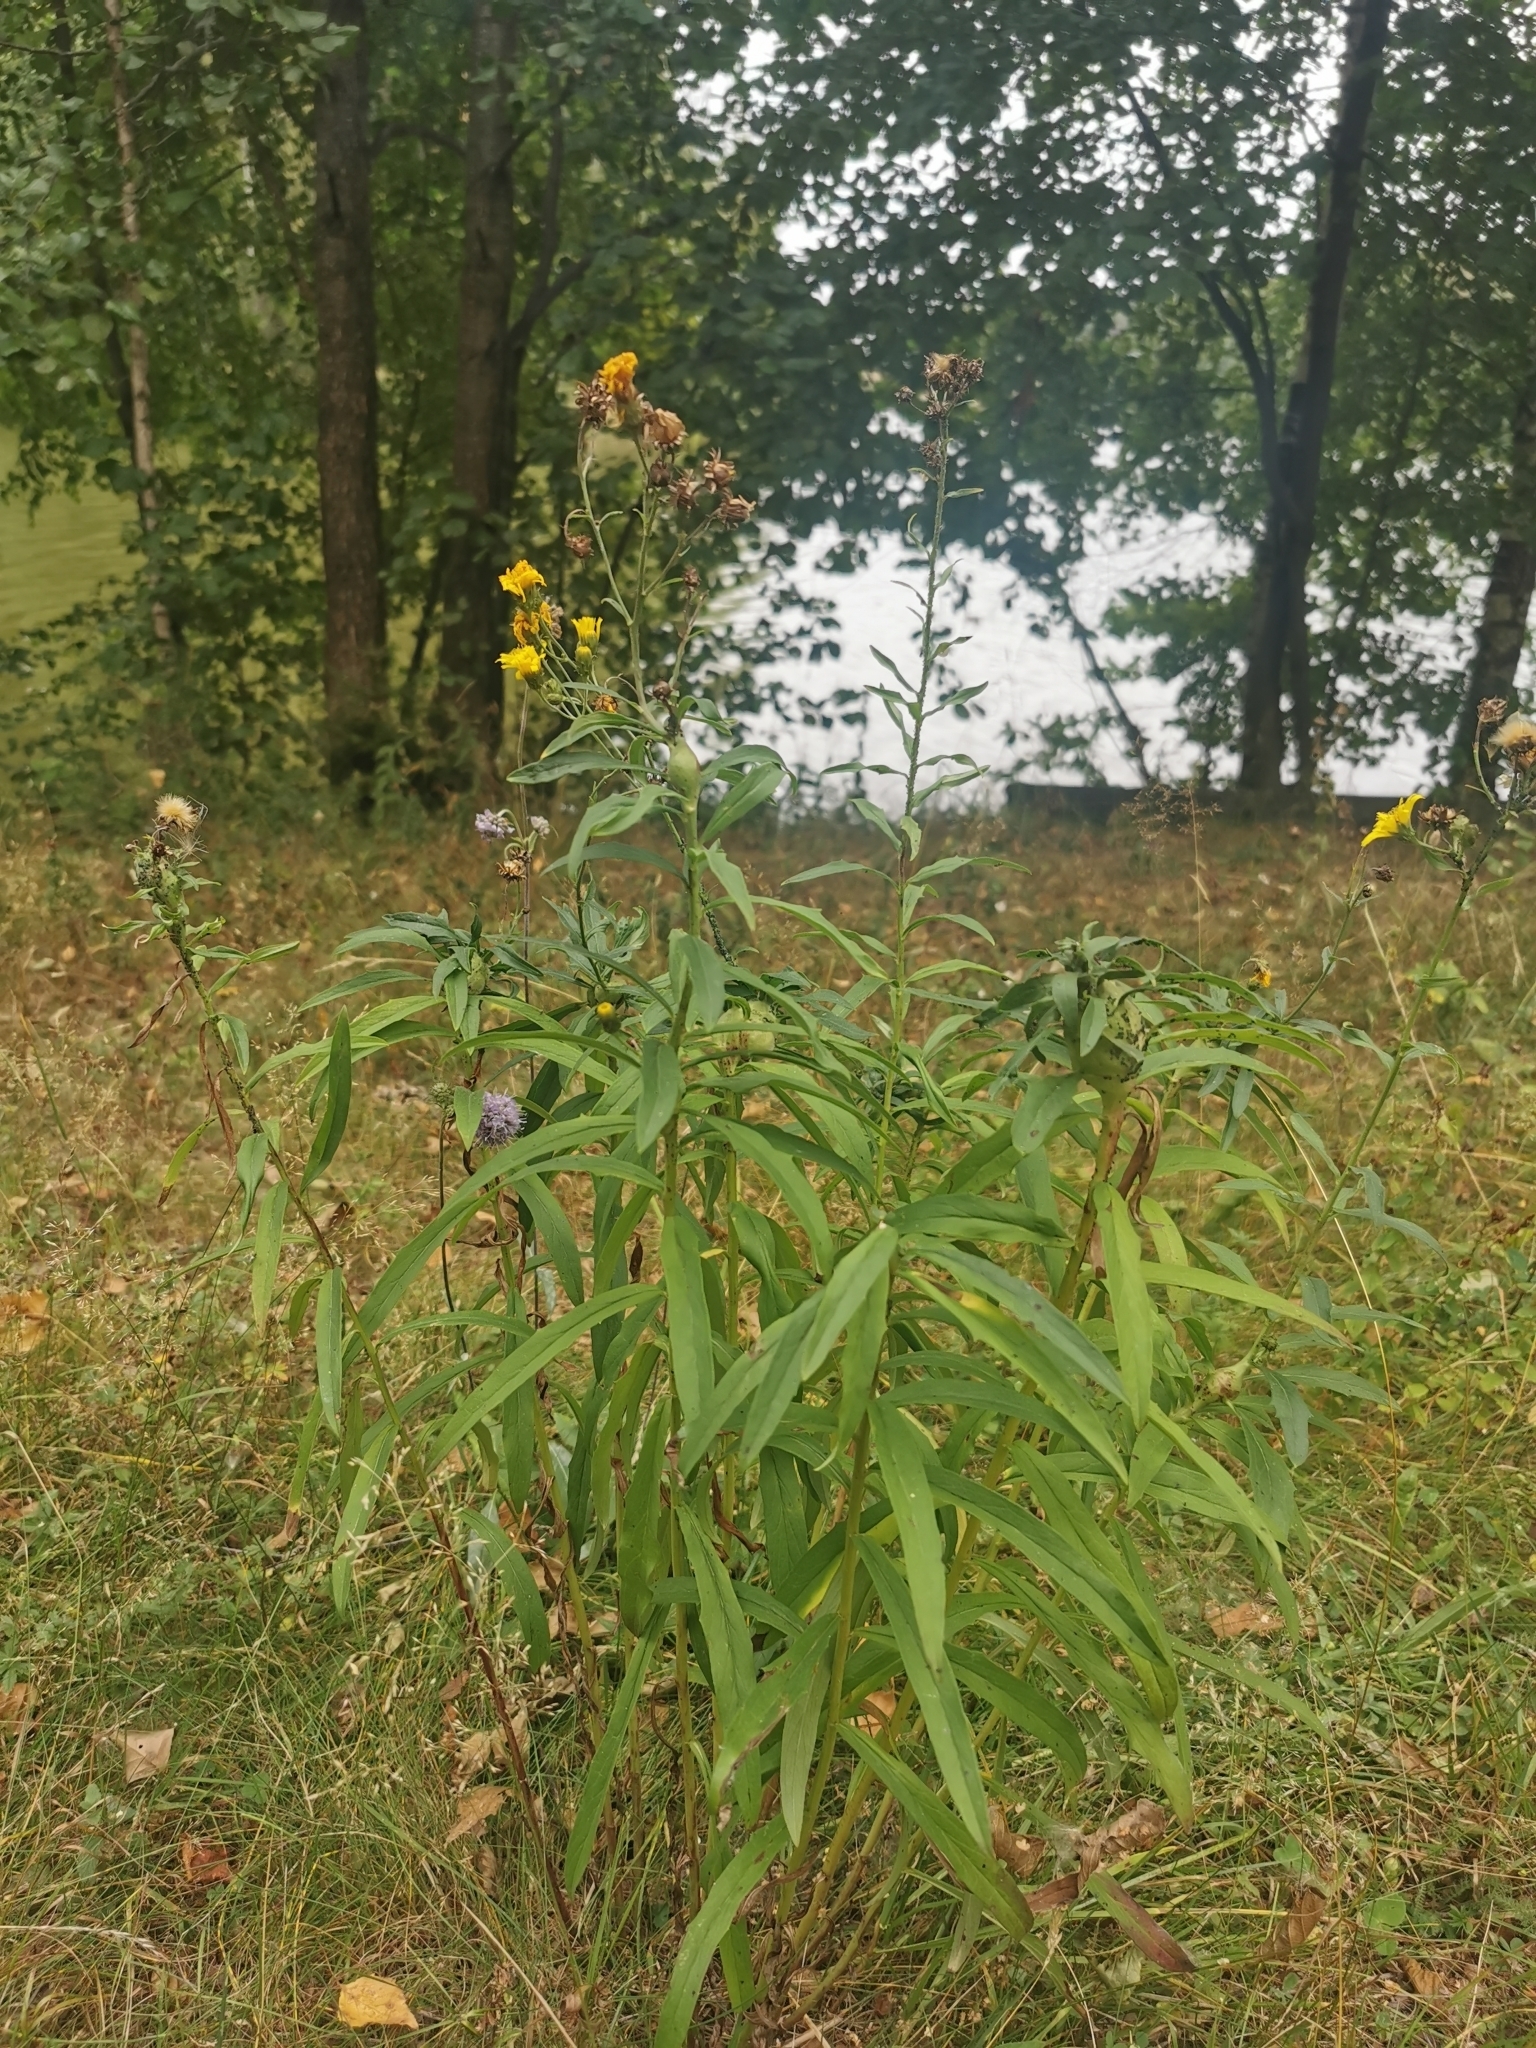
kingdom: Plantae
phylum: Tracheophyta
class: Magnoliopsida
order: Asterales
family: Asteraceae
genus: Hieracium
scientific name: Hieracium umbellatum
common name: Northern hawkweed
